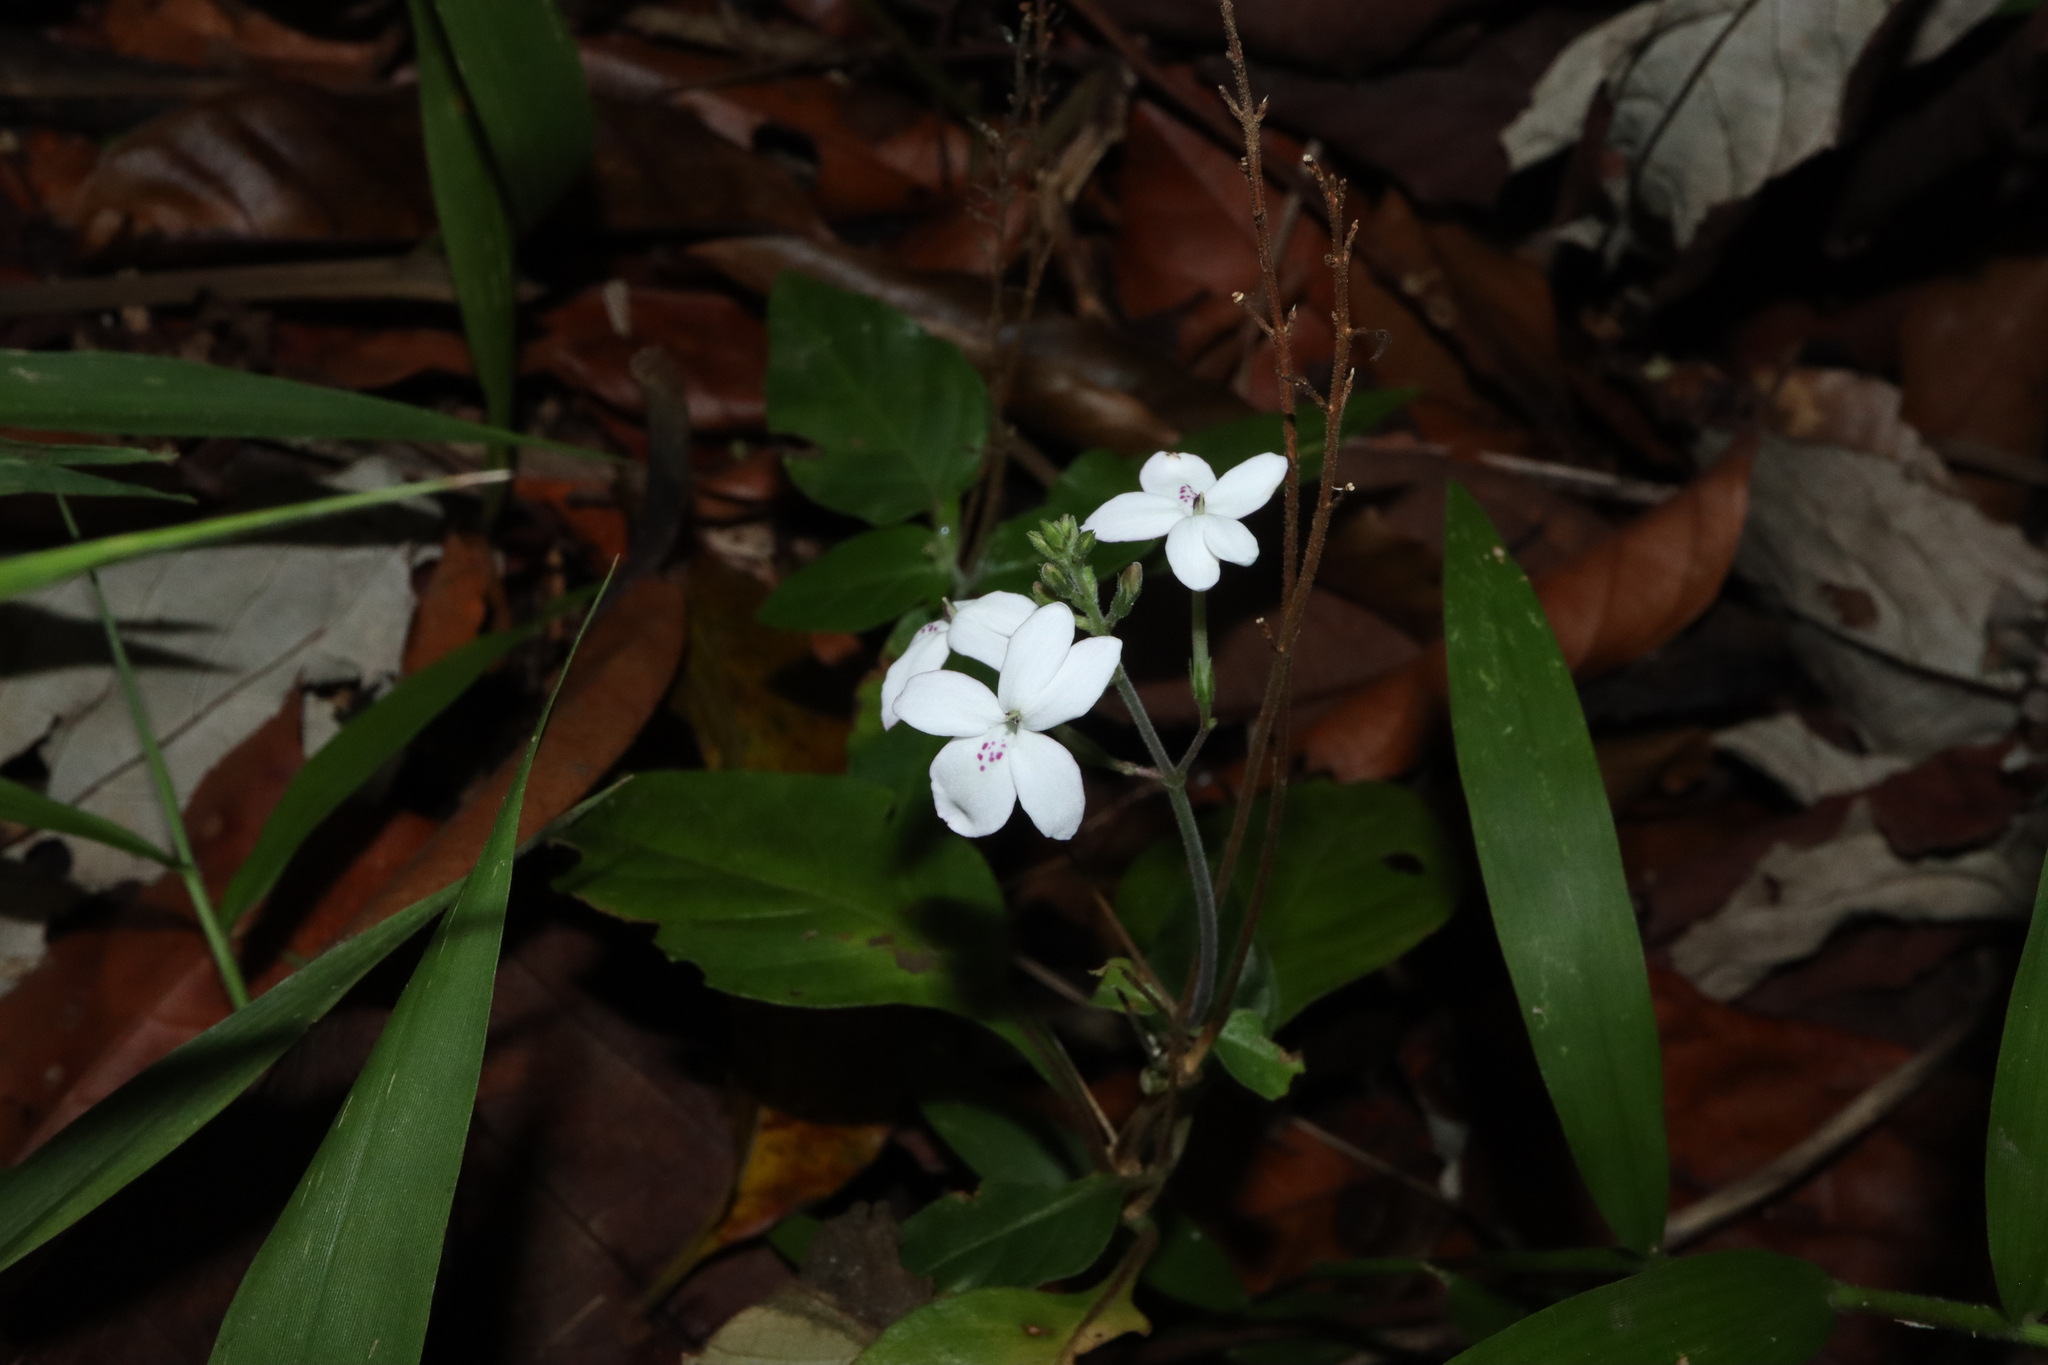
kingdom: Plantae
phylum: Tracheophyta
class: Magnoliopsida
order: Lamiales
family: Acanthaceae
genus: Pseuderanthemum
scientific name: Pseuderanthemum variabile
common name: Night and afternoon
